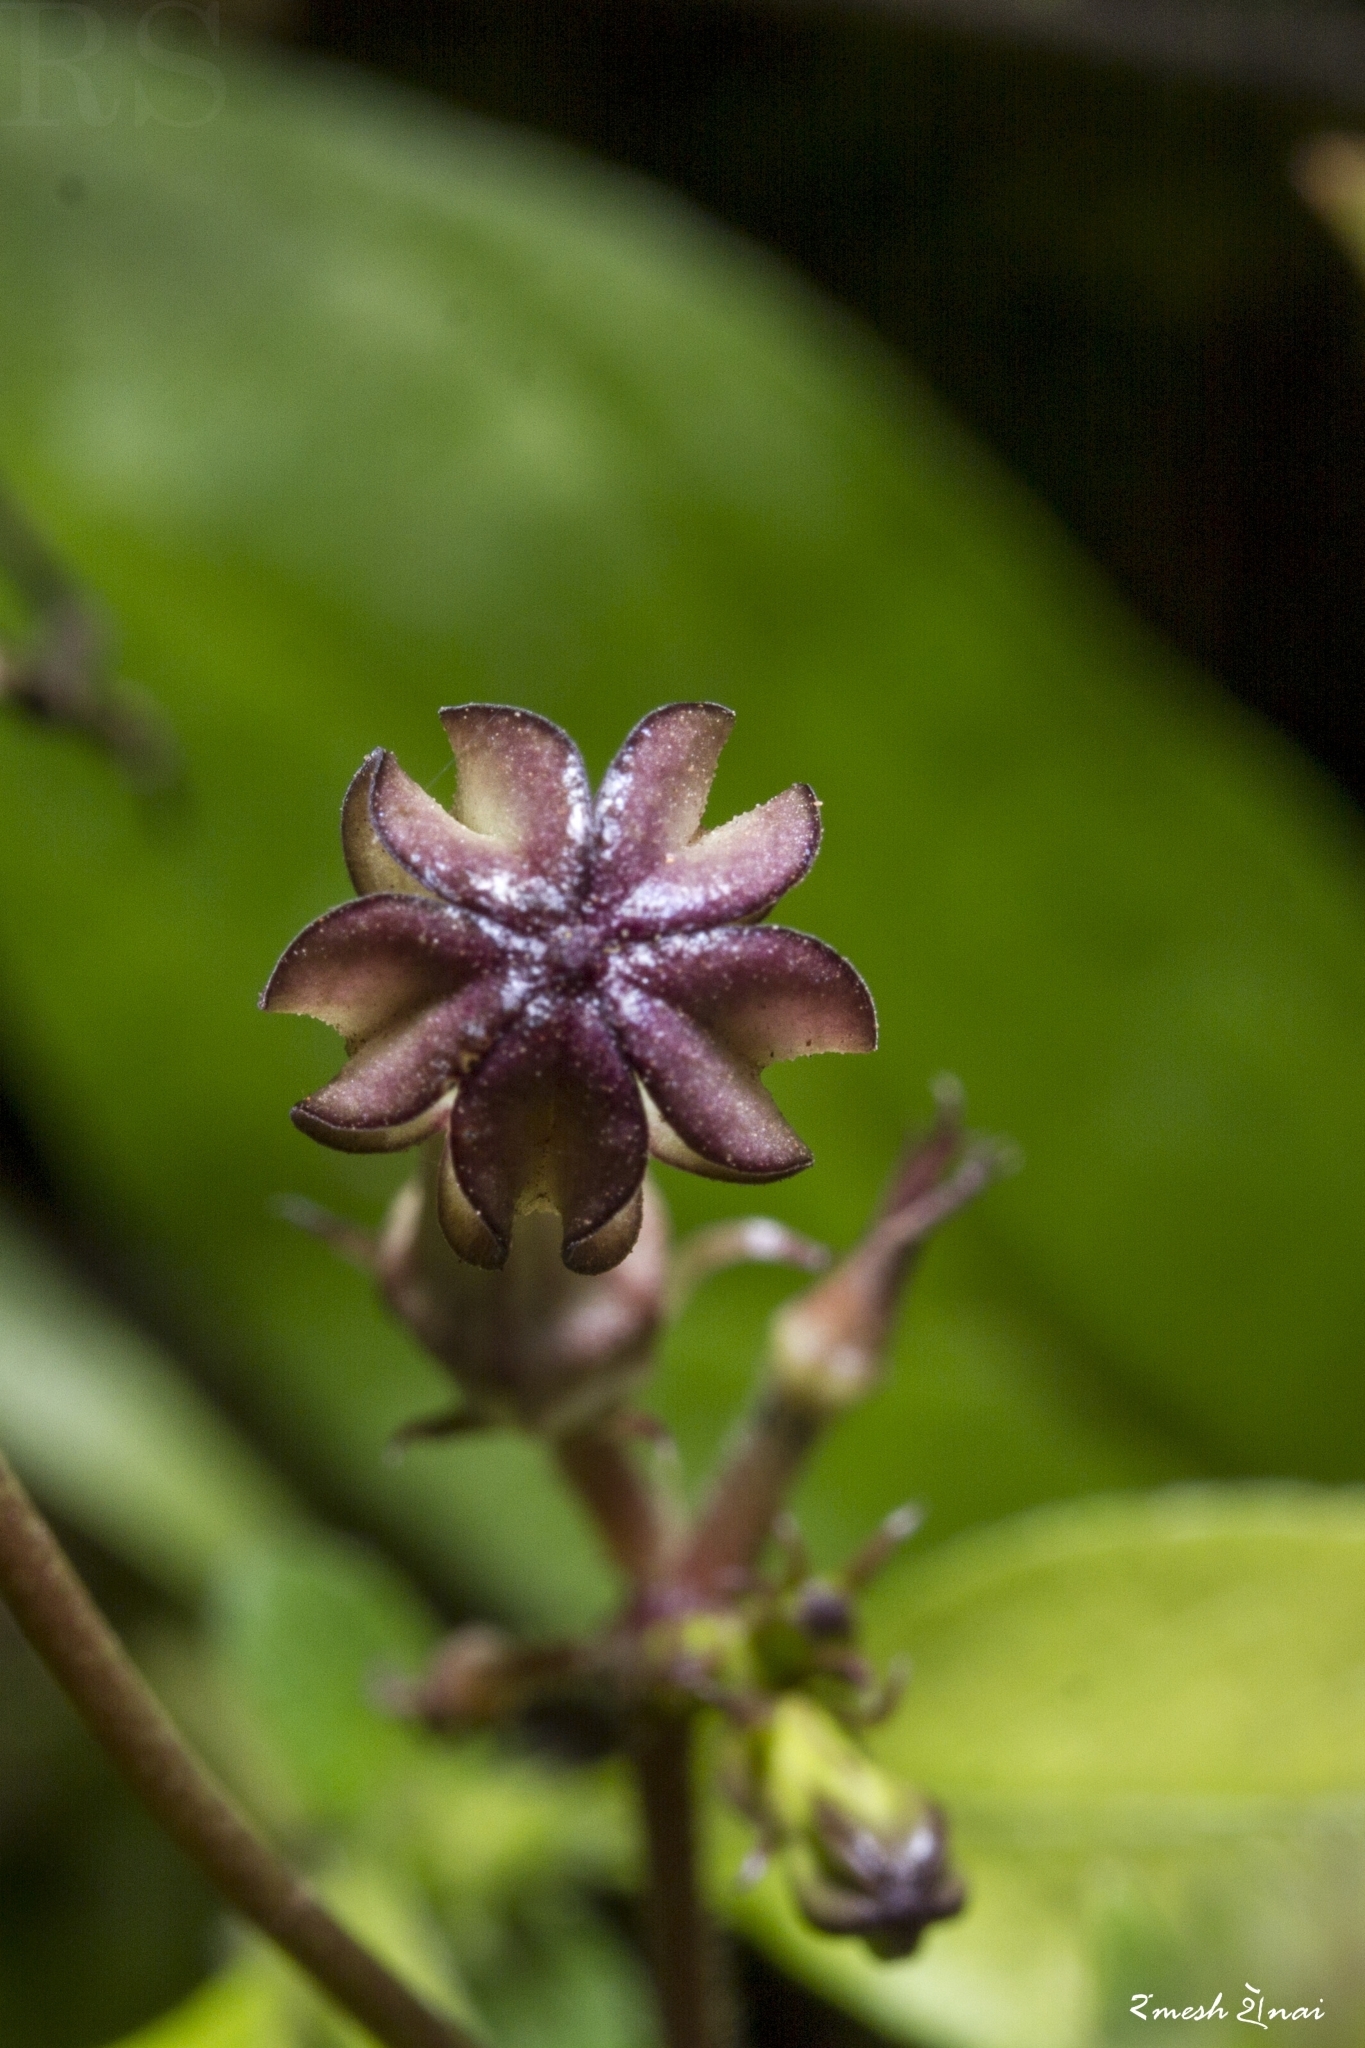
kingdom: Plantae
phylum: Tracheophyta
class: Magnoliopsida
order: Gentianales
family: Apocynaceae
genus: Ceropegia
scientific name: Ceropegia media
